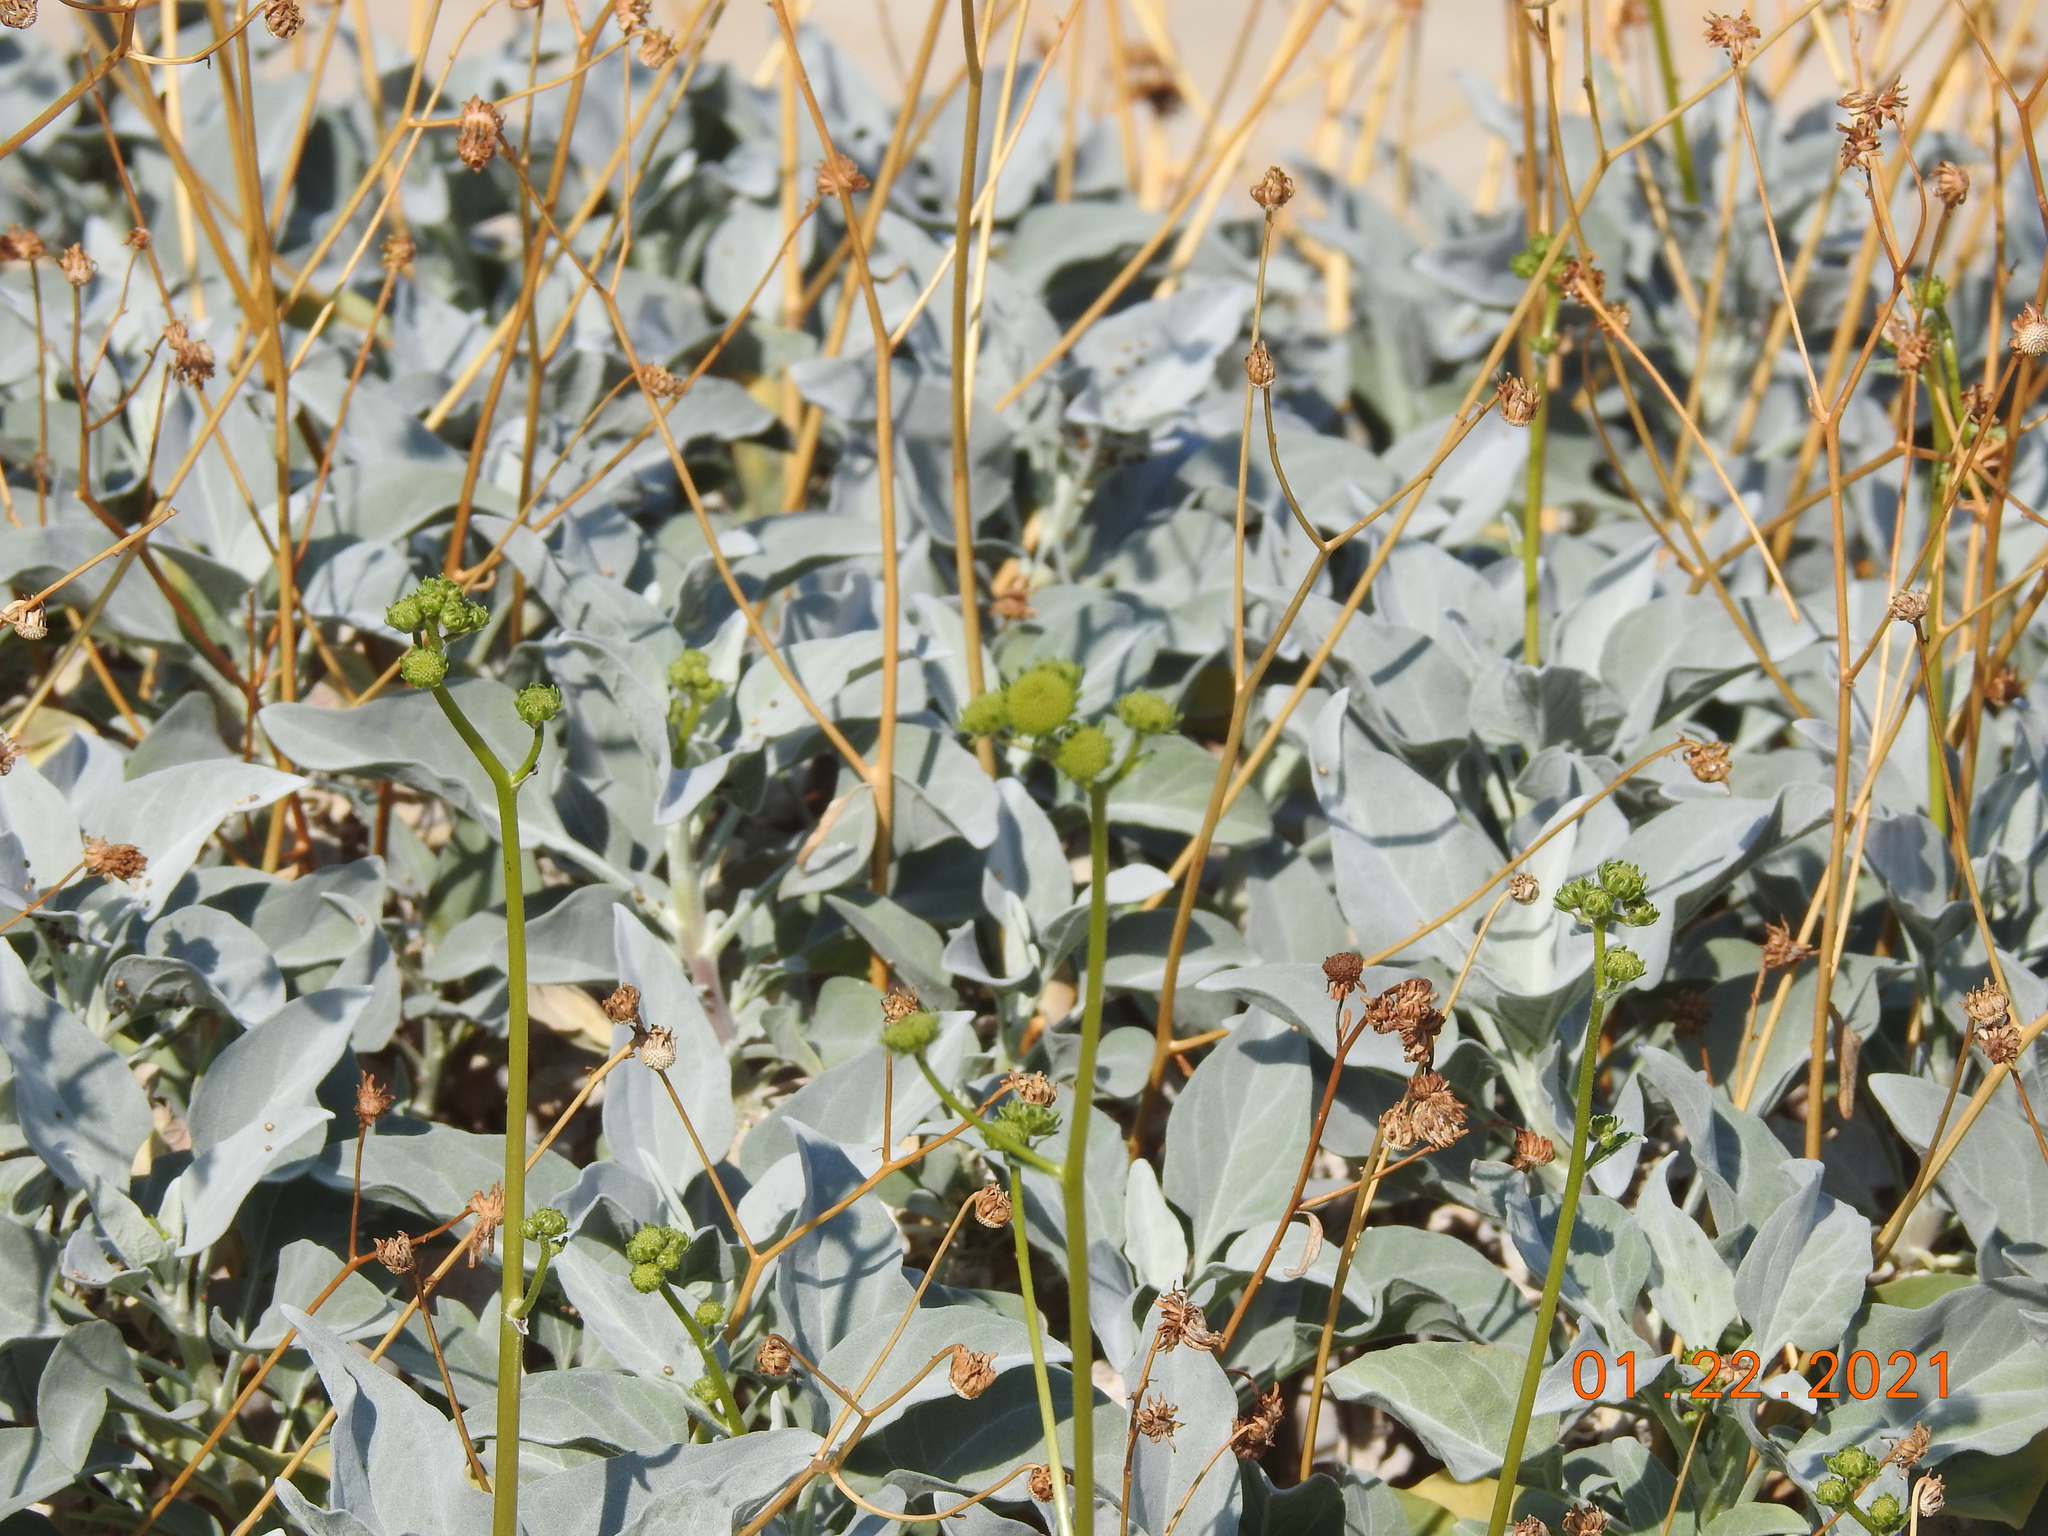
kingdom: Plantae
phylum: Tracheophyta
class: Magnoliopsida
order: Asterales
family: Asteraceae
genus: Encelia
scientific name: Encelia farinosa
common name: Brittlebush
